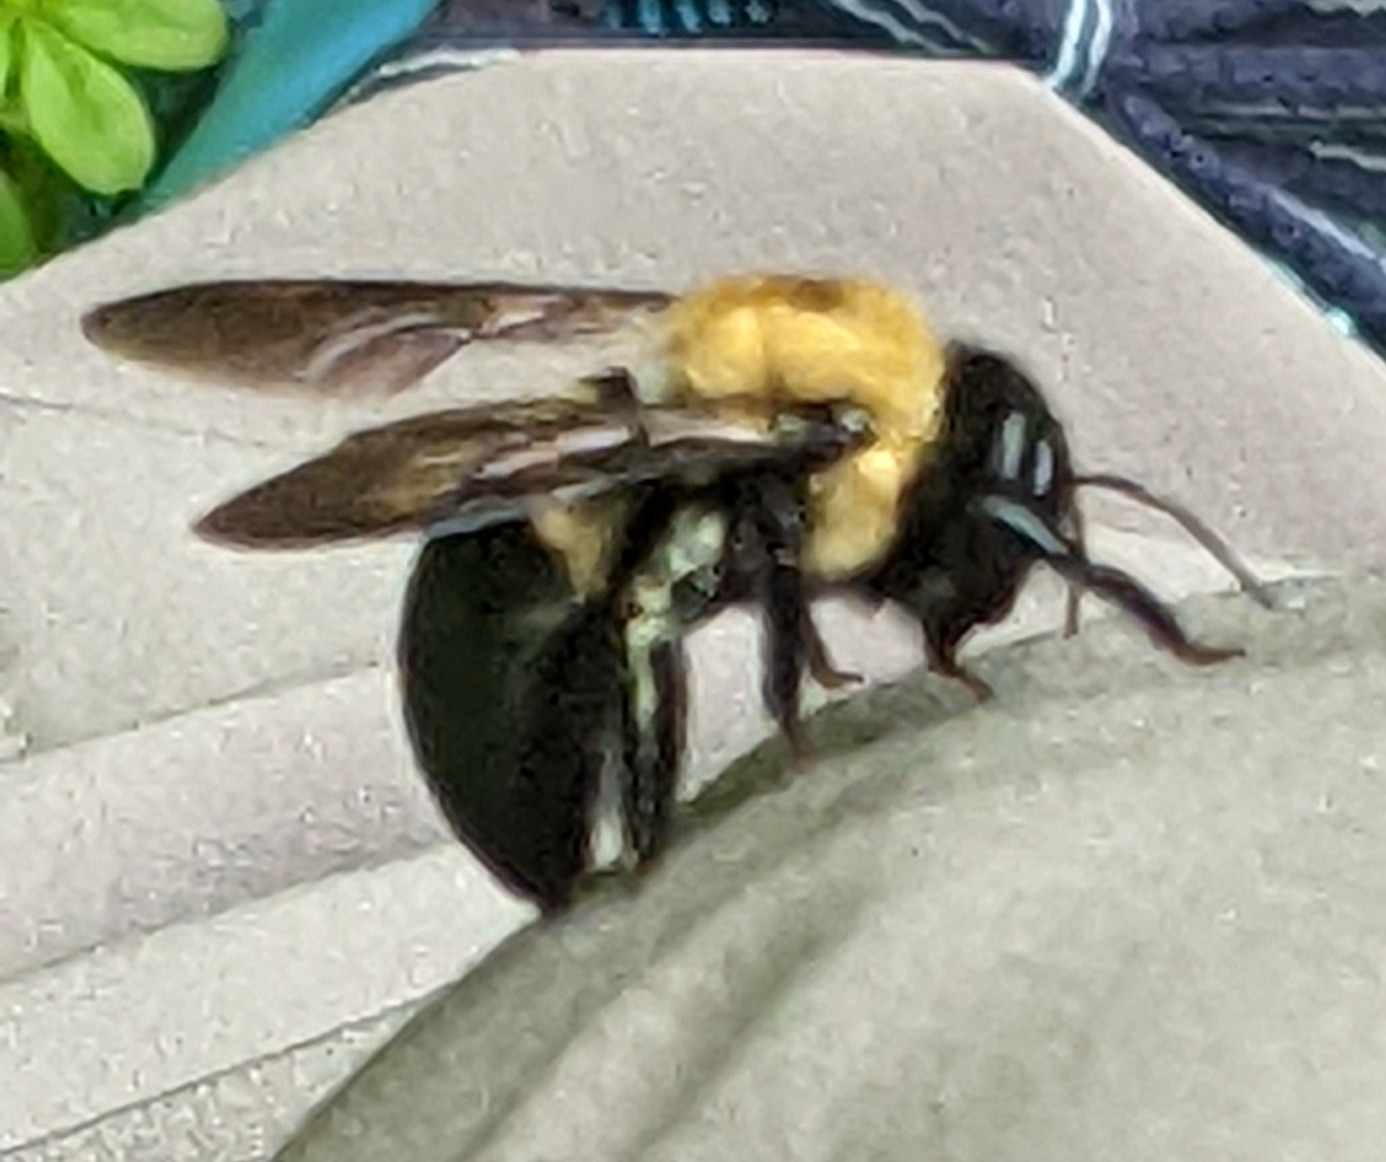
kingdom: Animalia
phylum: Arthropoda
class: Insecta
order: Hymenoptera
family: Apidae
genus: Xylocopa
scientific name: Xylocopa virginica
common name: Carpenter bee
